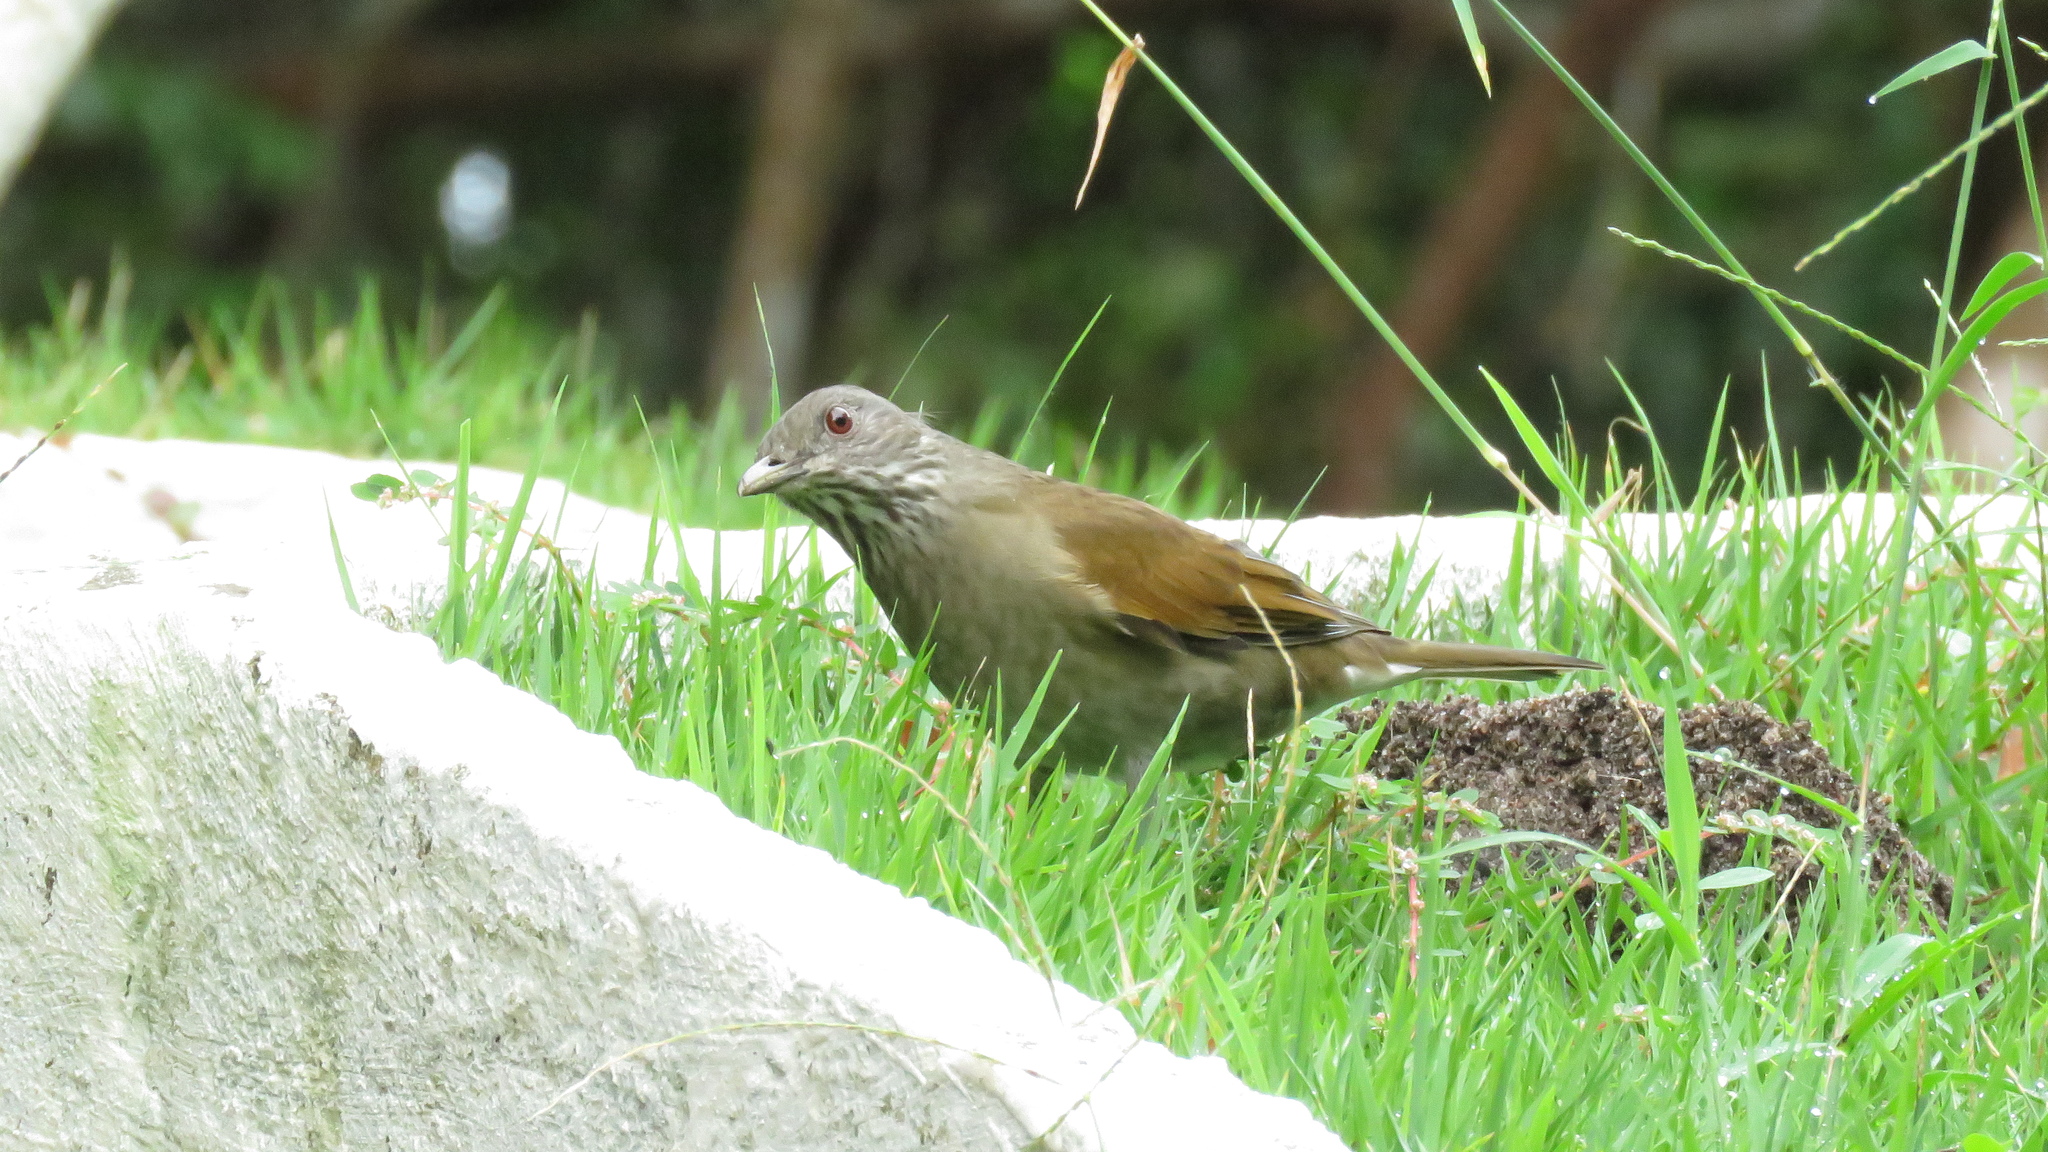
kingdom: Animalia
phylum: Chordata
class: Aves
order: Passeriformes
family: Turdidae
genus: Turdus
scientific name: Turdus leucomelas
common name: Pale-breasted thrush
